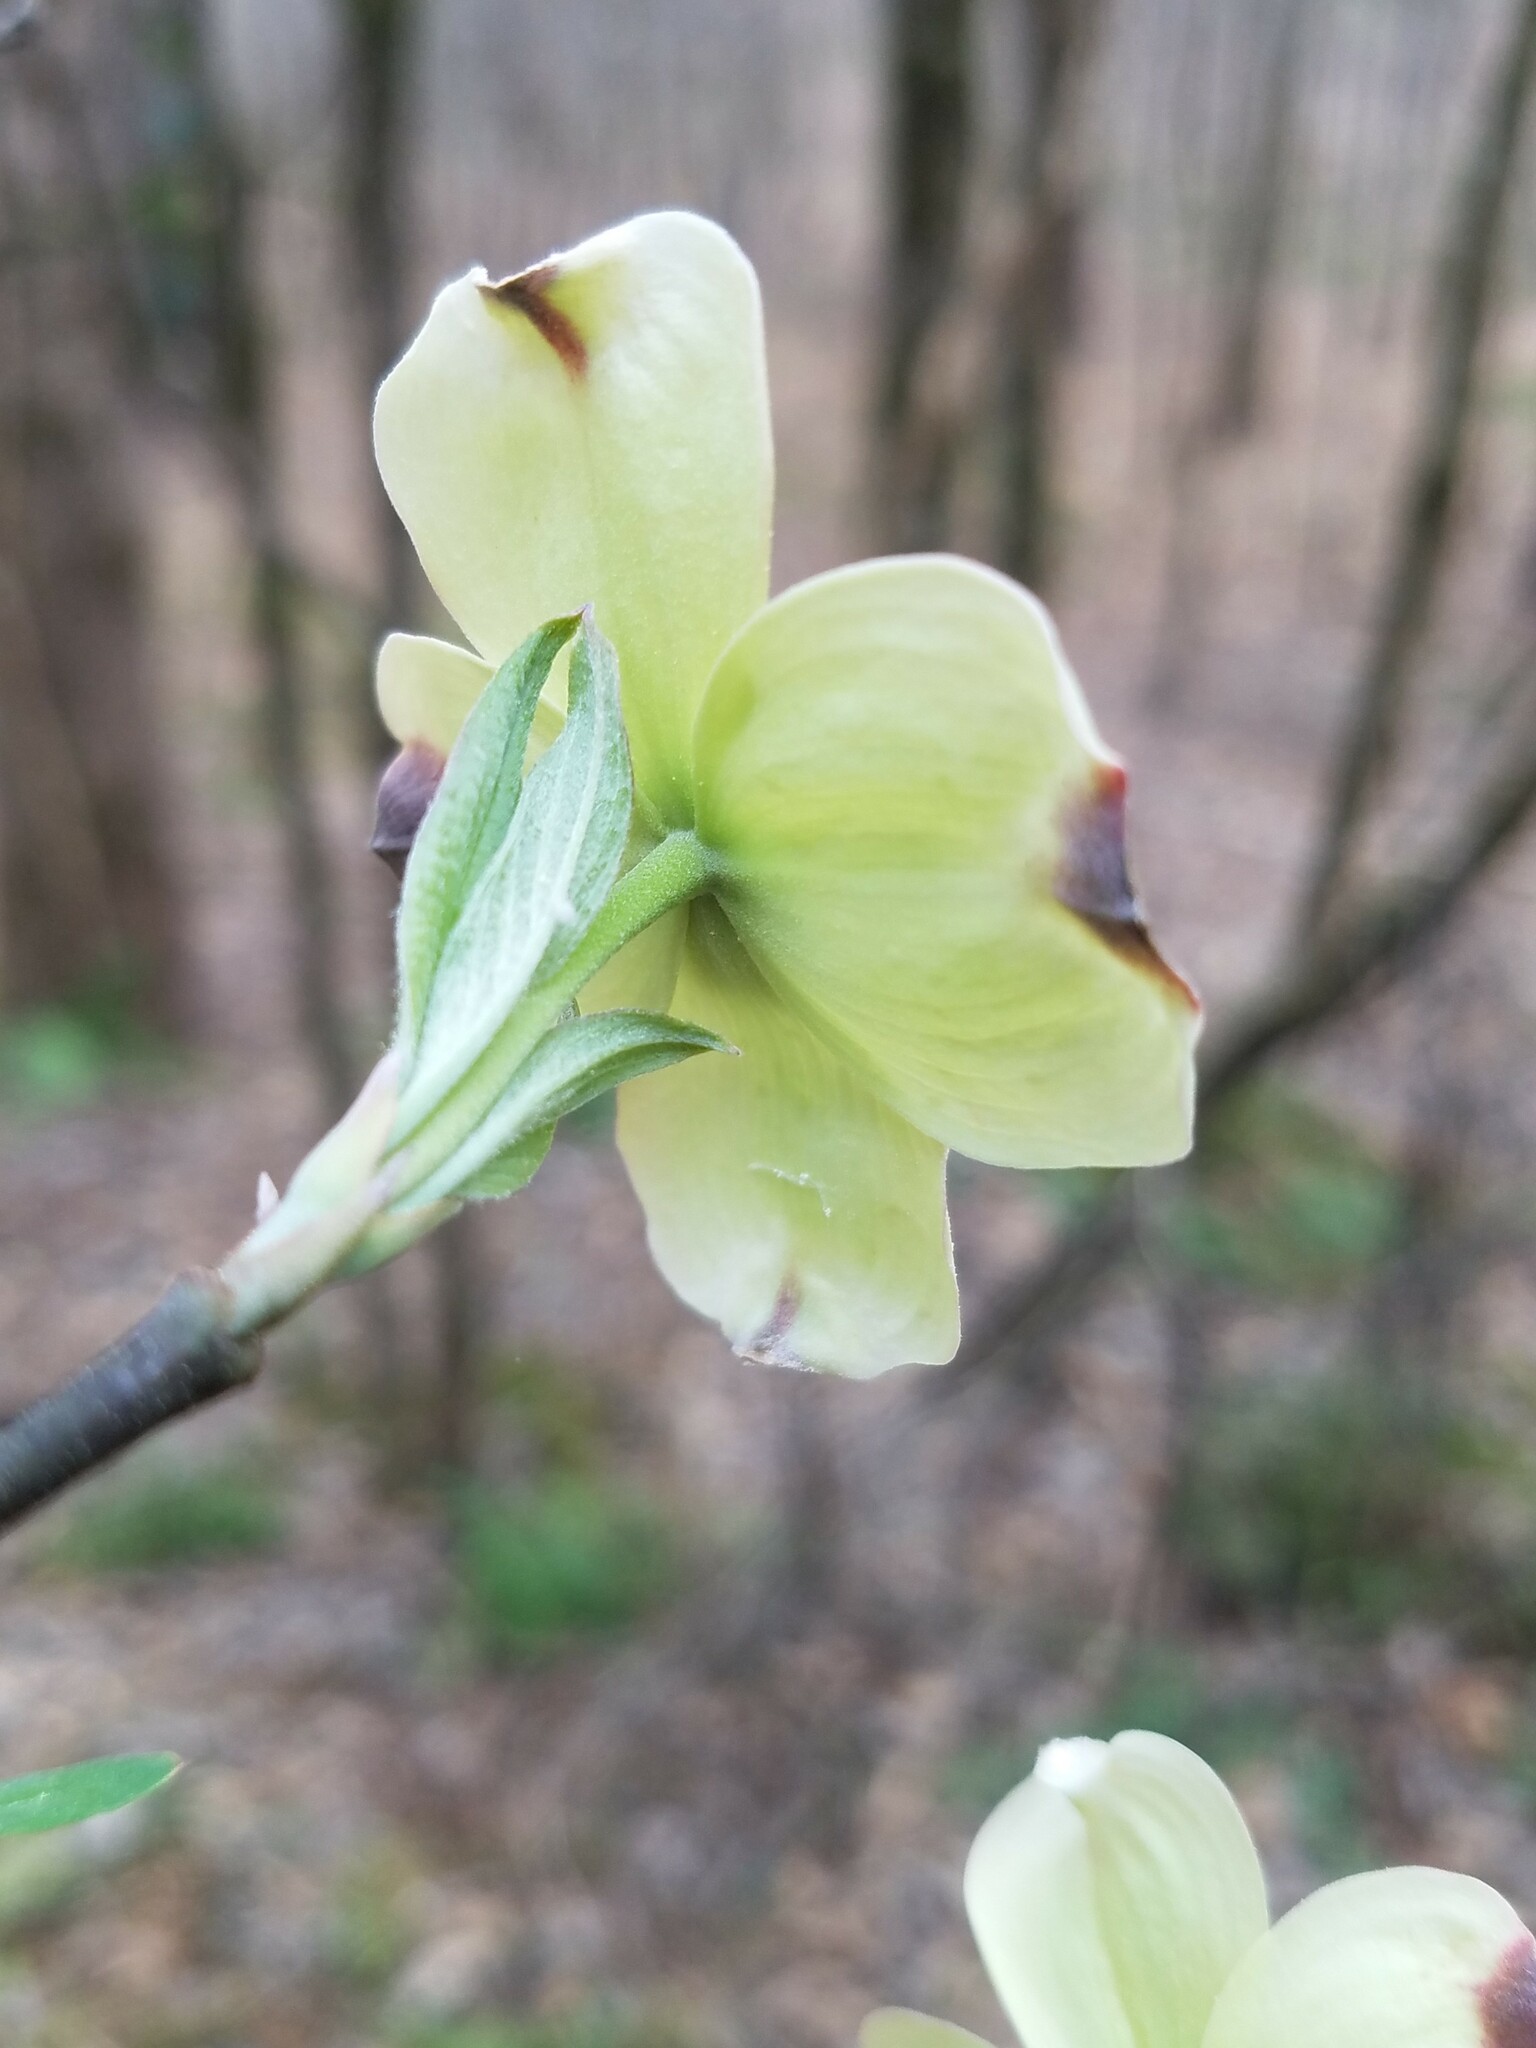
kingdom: Plantae
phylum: Tracheophyta
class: Magnoliopsida
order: Cornales
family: Cornaceae
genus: Cornus
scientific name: Cornus florida
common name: Flowering dogwood
